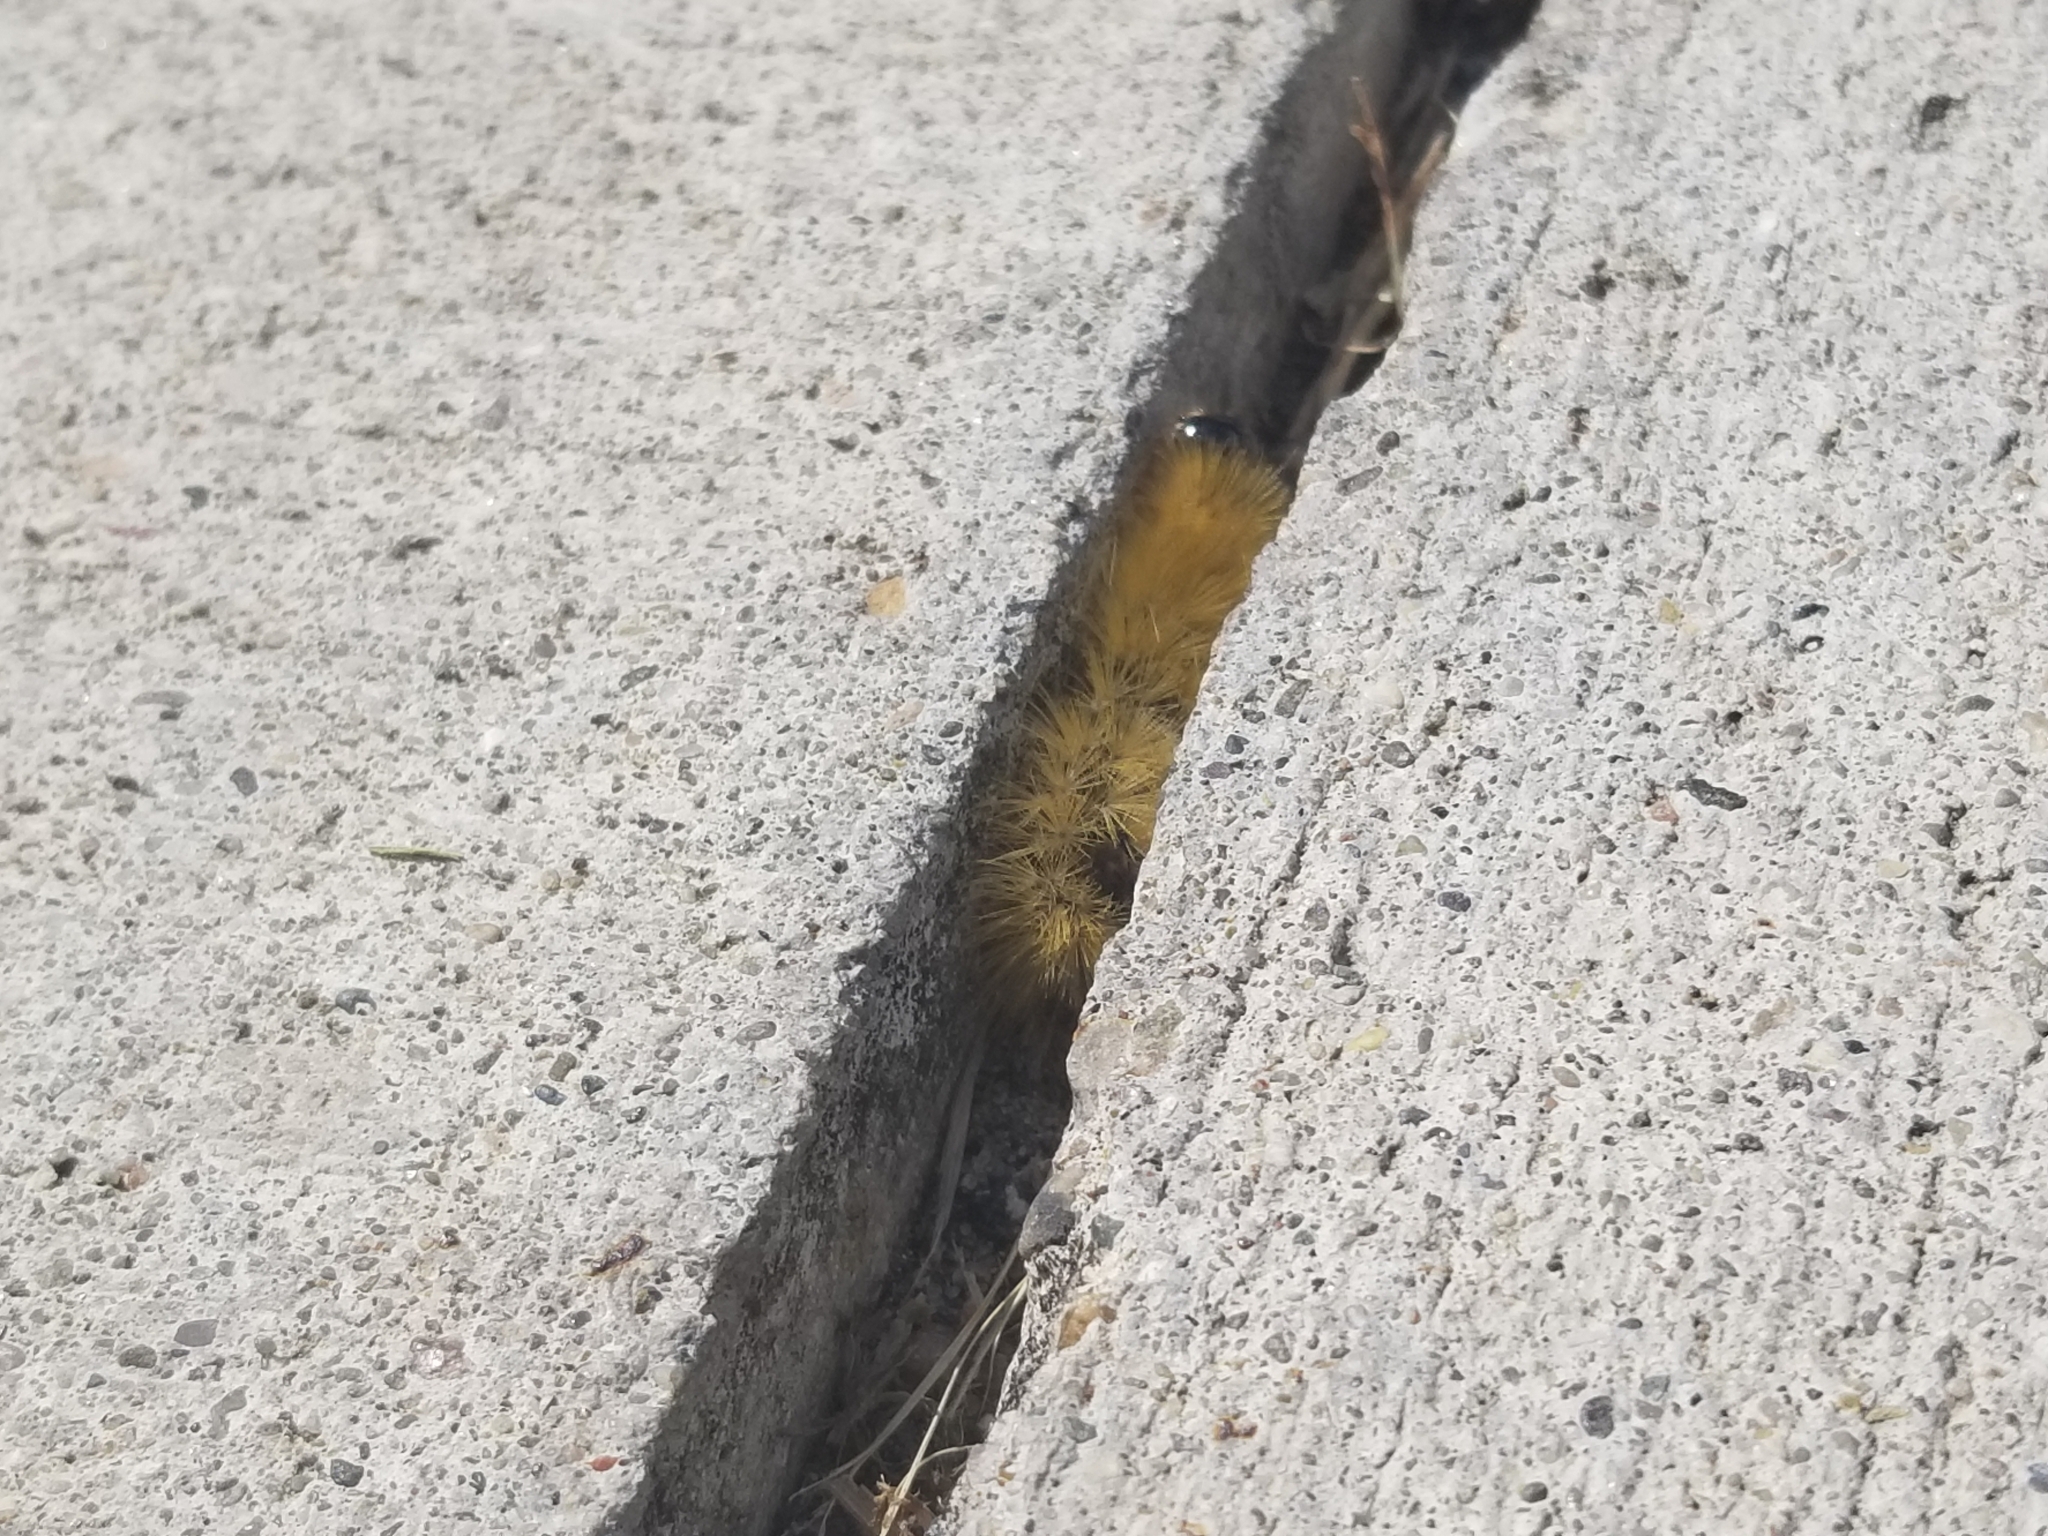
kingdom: Animalia
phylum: Arthropoda
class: Insecta
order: Lepidoptera
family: Erebidae
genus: Halysidota
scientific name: Halysidota tessellaris
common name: Banded tussock moth
